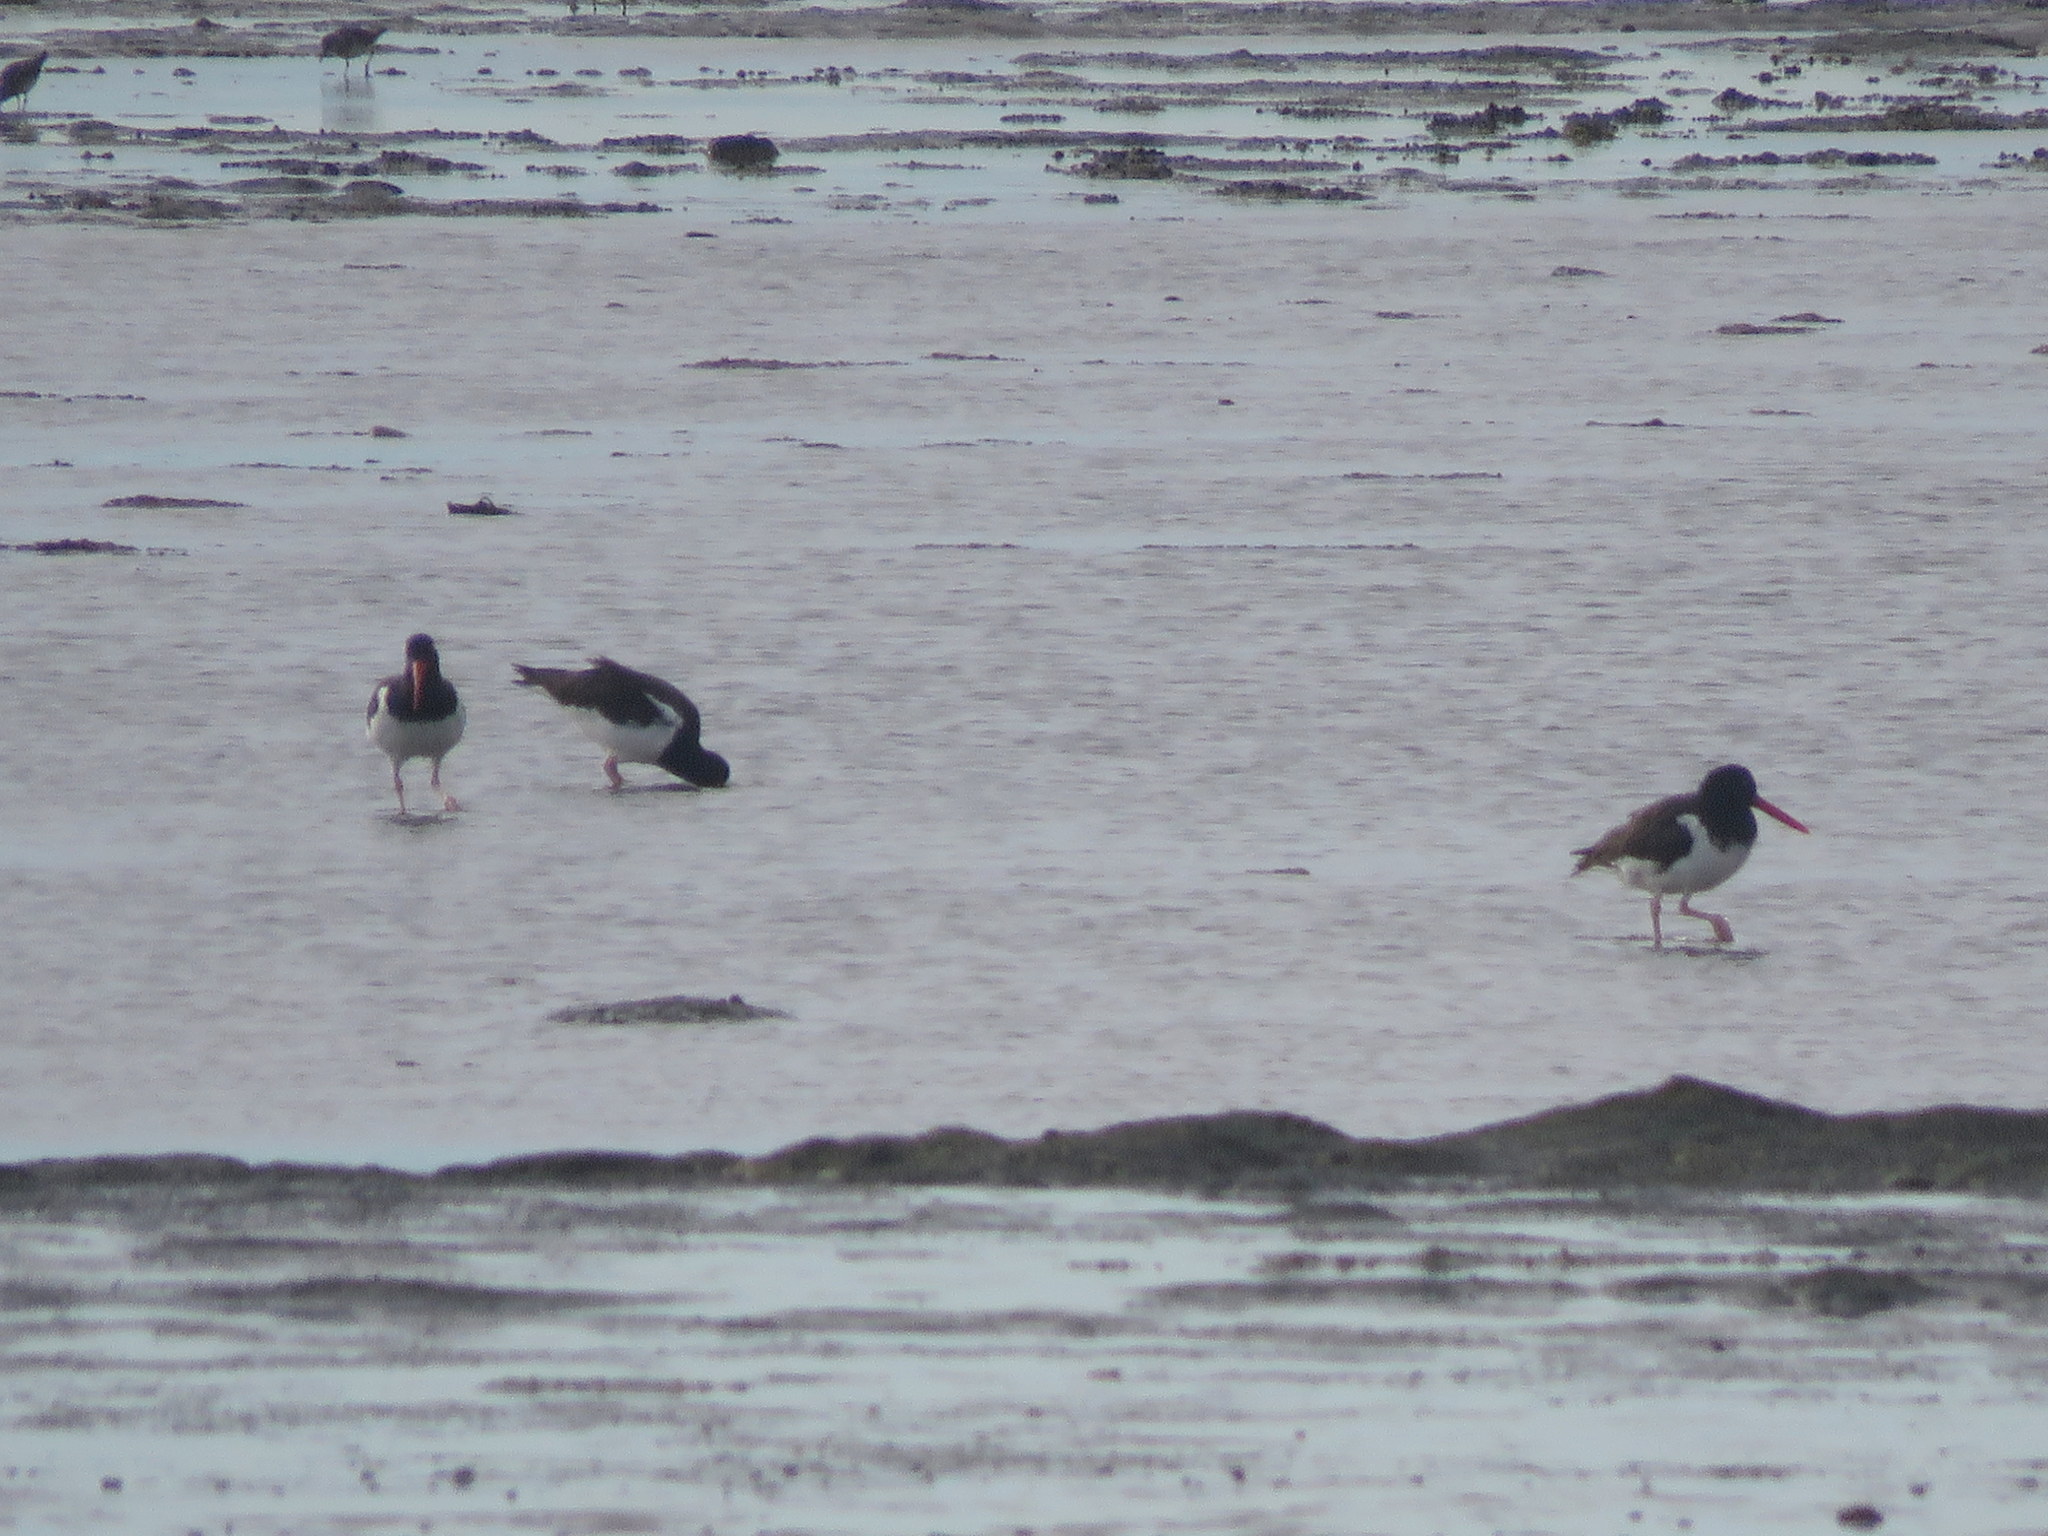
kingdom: Animalia
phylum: Chordata
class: Aves
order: Charadriiformes
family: Haematopodidae
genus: Haematopus
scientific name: Haematopus palliatus
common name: American oystercatcher
